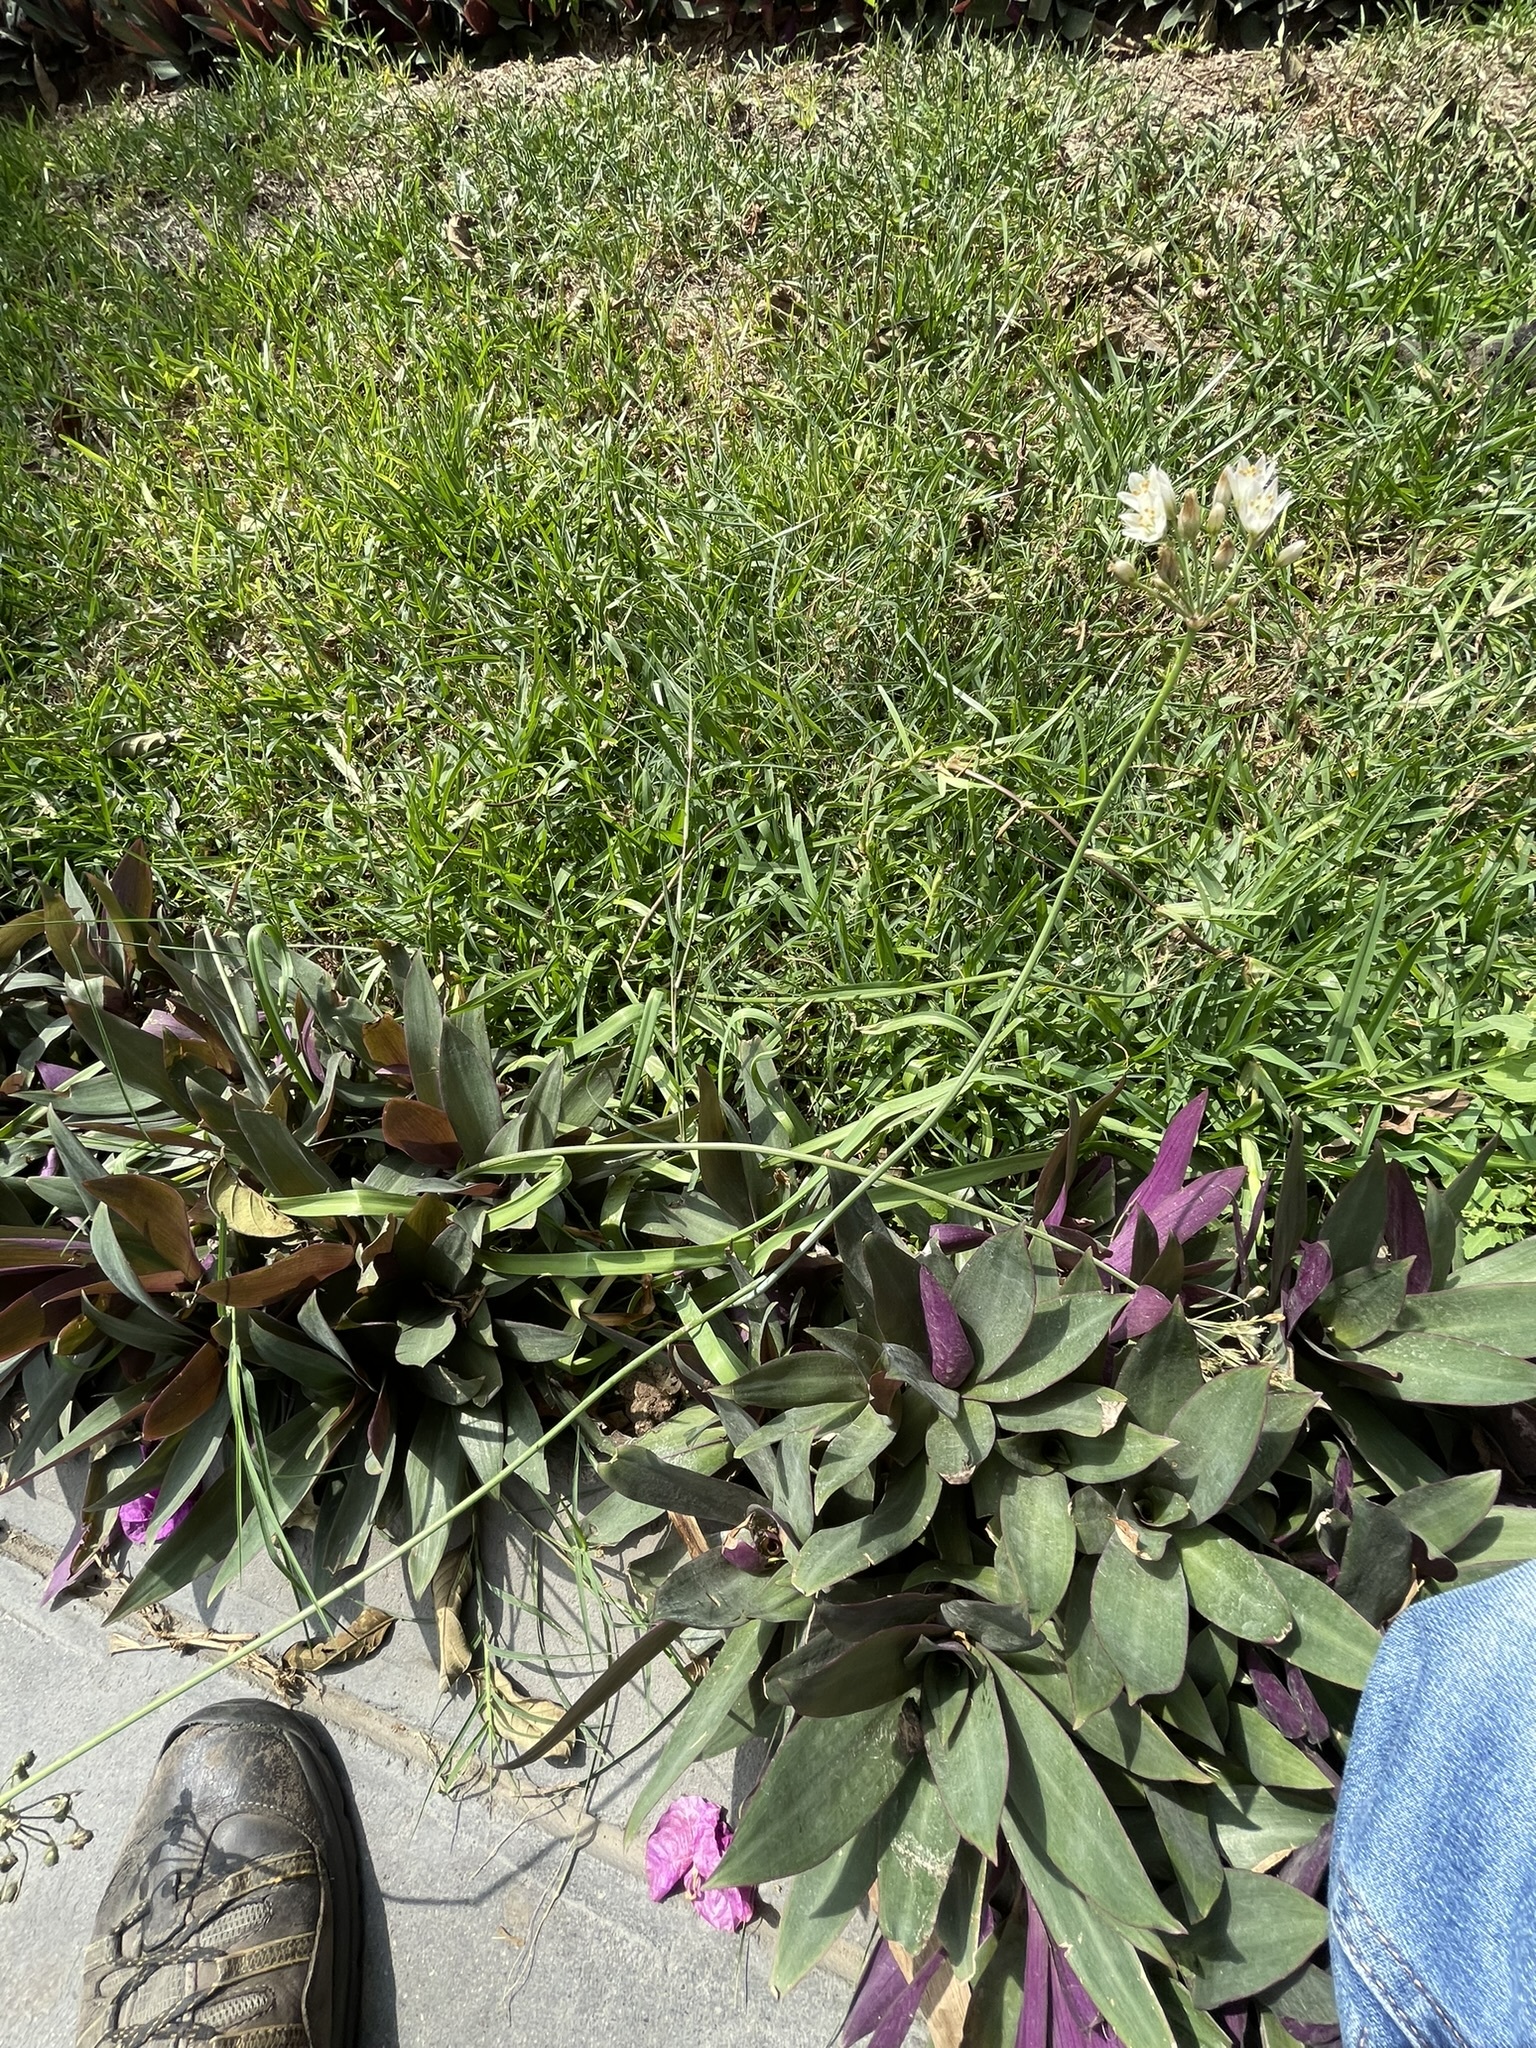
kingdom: Plantae
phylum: Tracheophyta
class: Liliopsida
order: Asparagales
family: Amaryllidaceae
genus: Nothoscordum
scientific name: Nothoscordum gracile
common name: Slender false garlic
